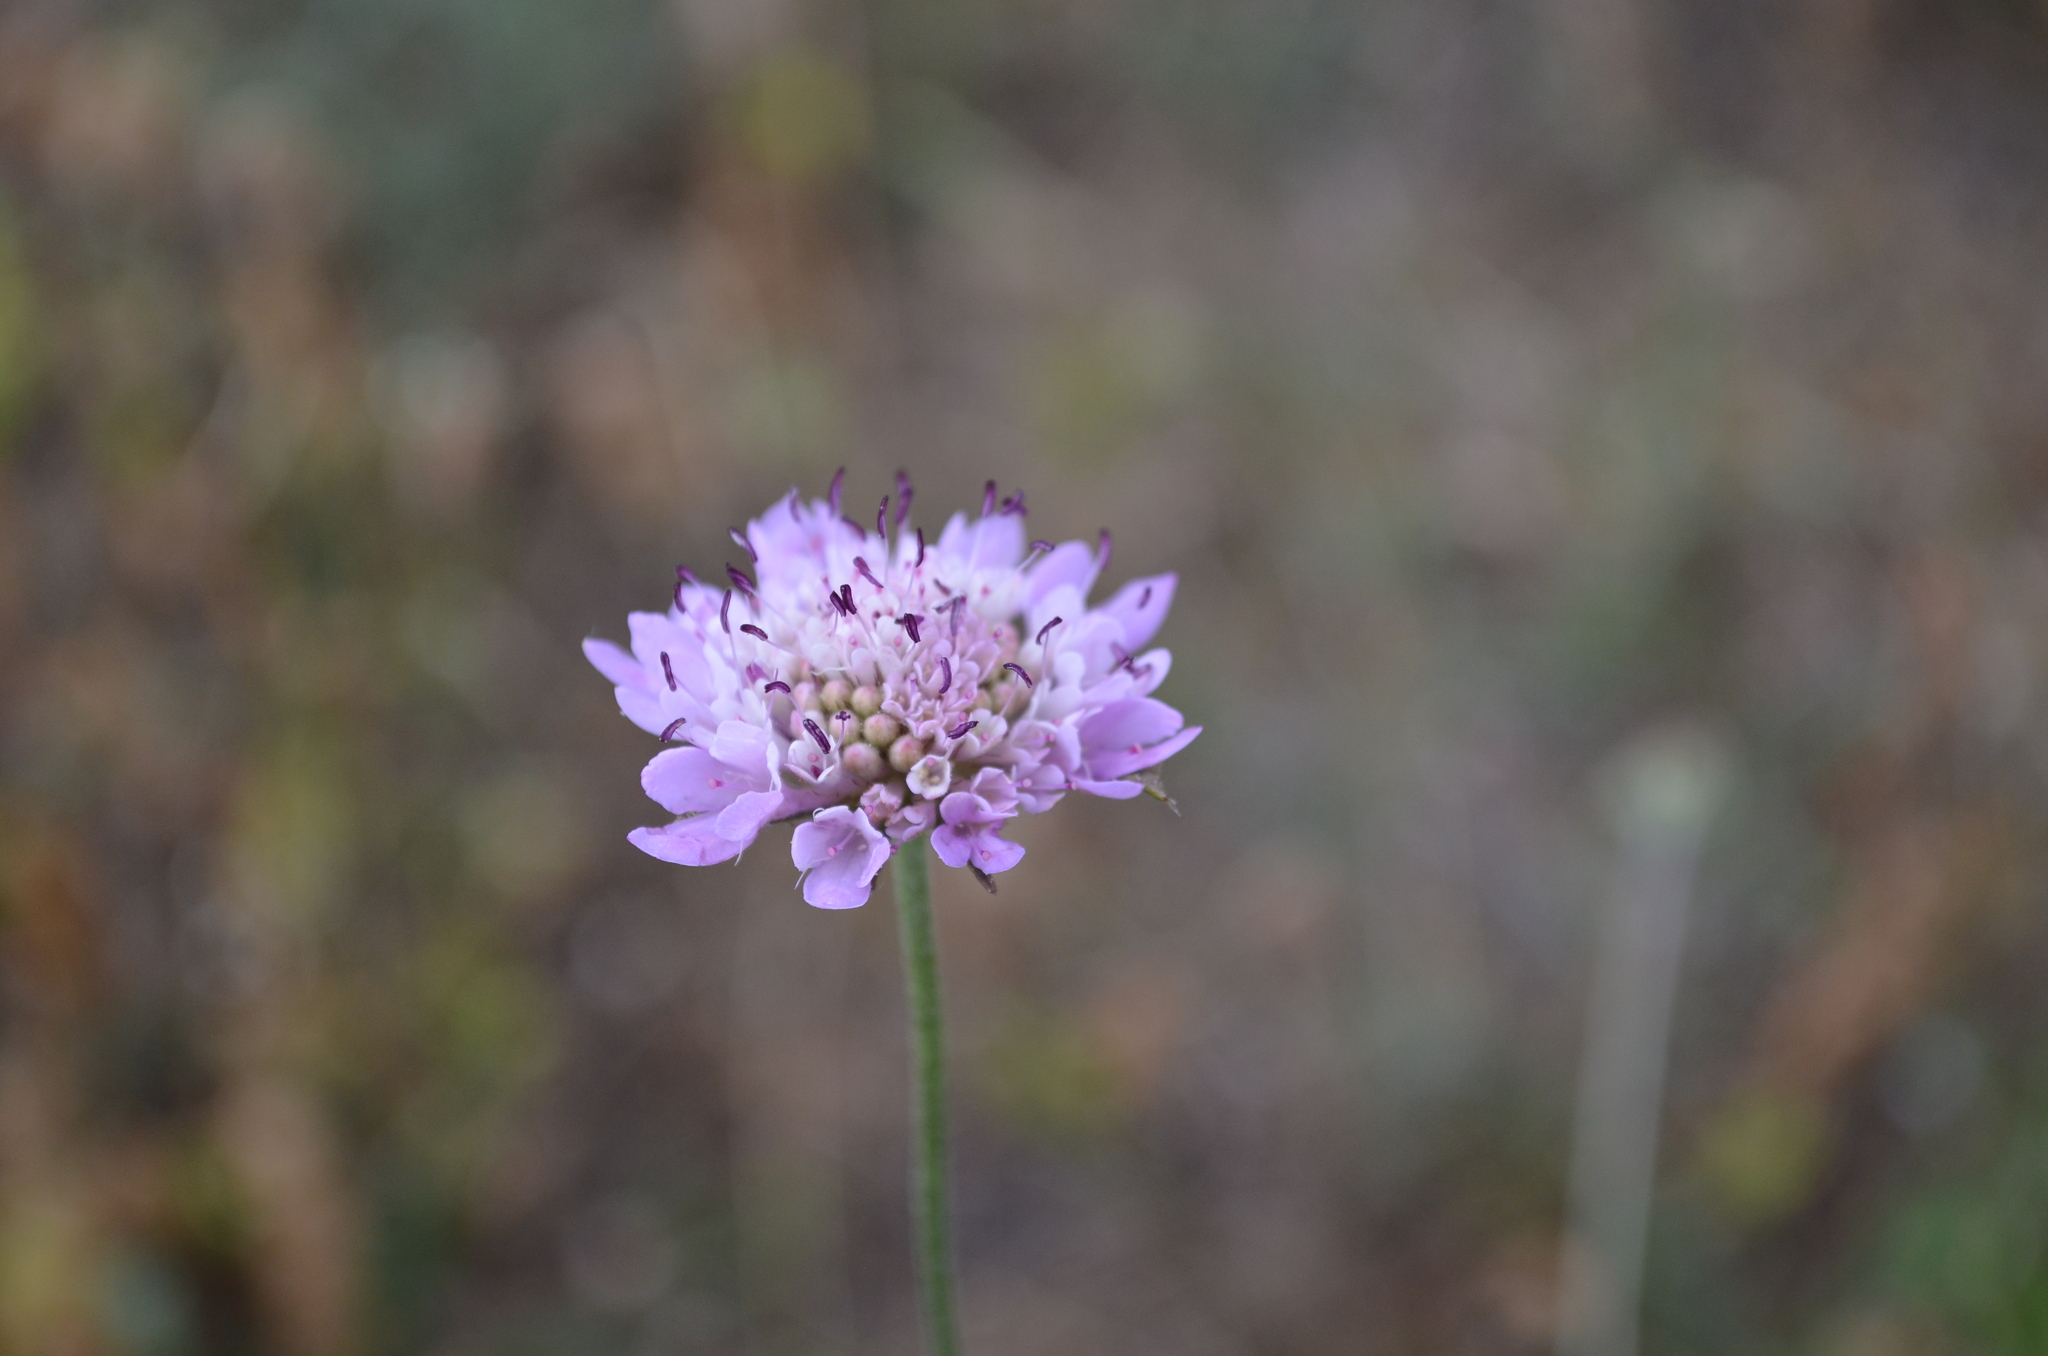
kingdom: Plantae
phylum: Tracheophyta
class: Magnoliopsida
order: Dipsacales
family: Caprifoliaceae
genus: Sixalix
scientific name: Sixalix atropurpurea
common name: Sweet scabious
